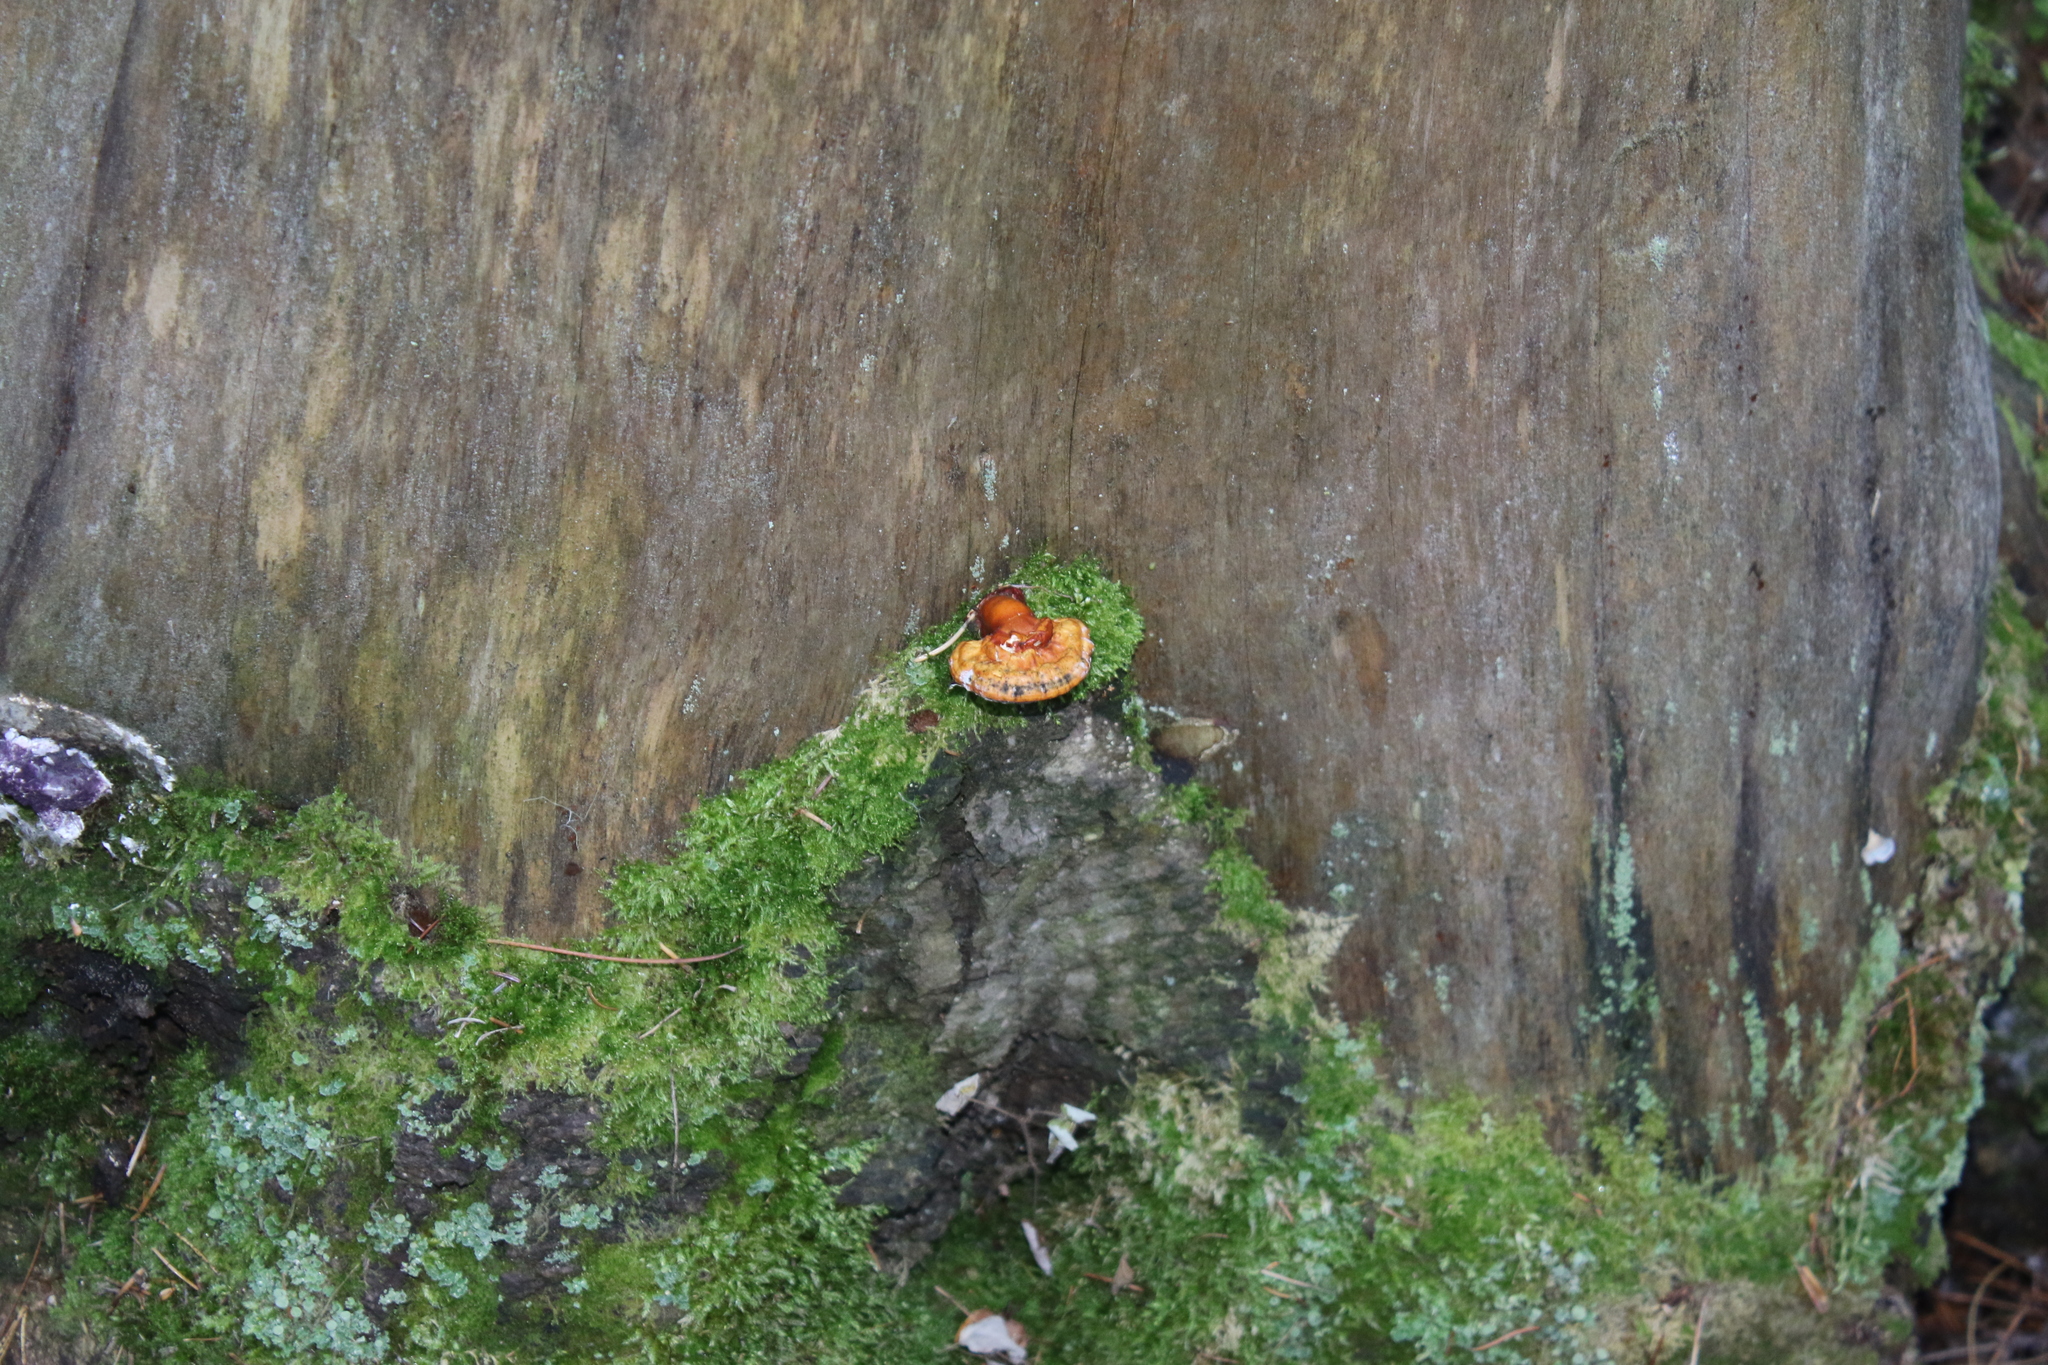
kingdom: Fungi
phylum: Basidiomycota
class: Agaricomycetes
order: Polyporales
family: Polyporaceae
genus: Ganoderma
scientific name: Ganoderma lucidum
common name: Lacquered bracket
